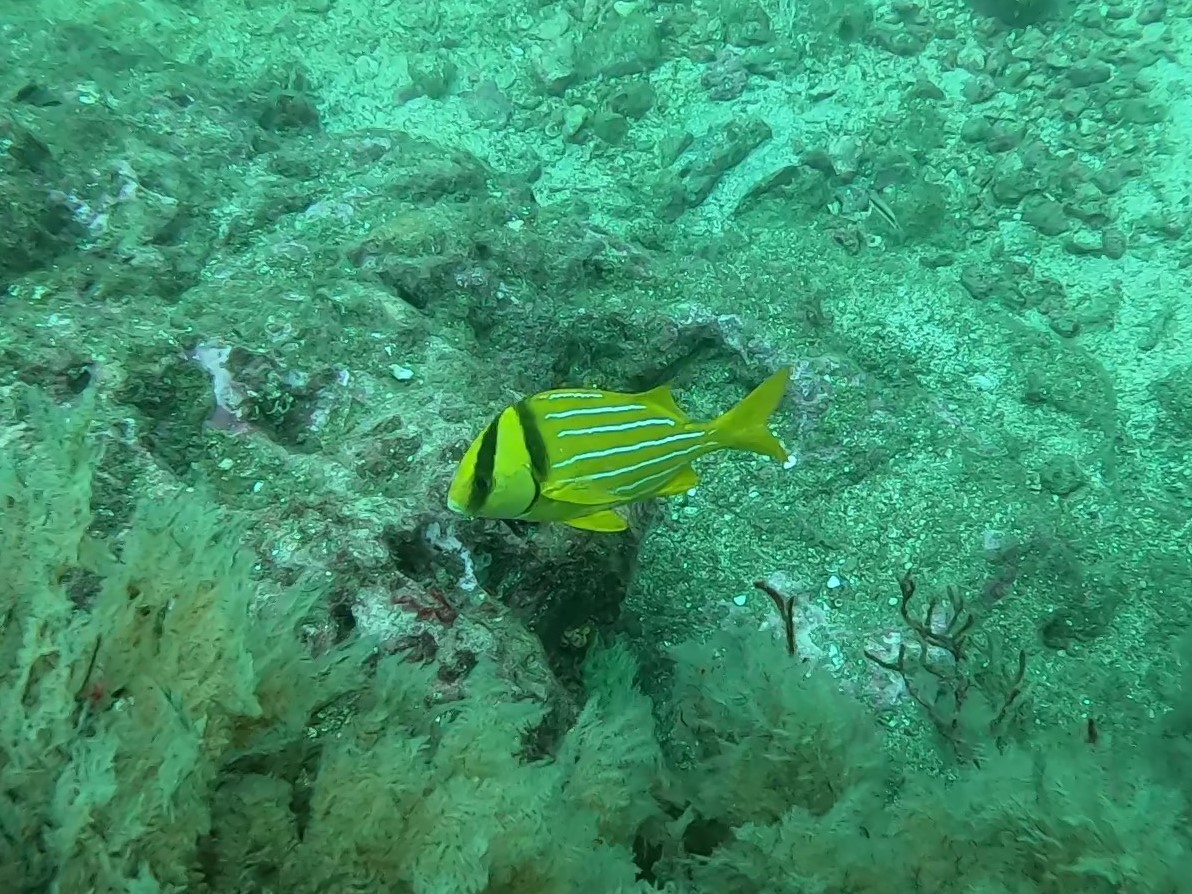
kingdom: Animalia
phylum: Chordata
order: Perciformes
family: Haemulidae
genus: Anisotremus
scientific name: Anisotremus taeniatus
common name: Catalina
